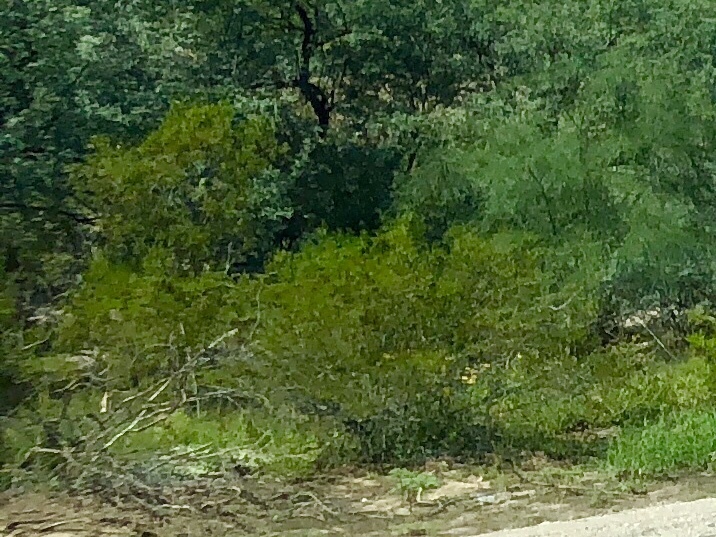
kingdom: Plantae
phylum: Tracheophyta
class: Magnoliopsida
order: Zygophyllales
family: Zygophyllaceae
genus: Larrea
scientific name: Larrea tridentata
